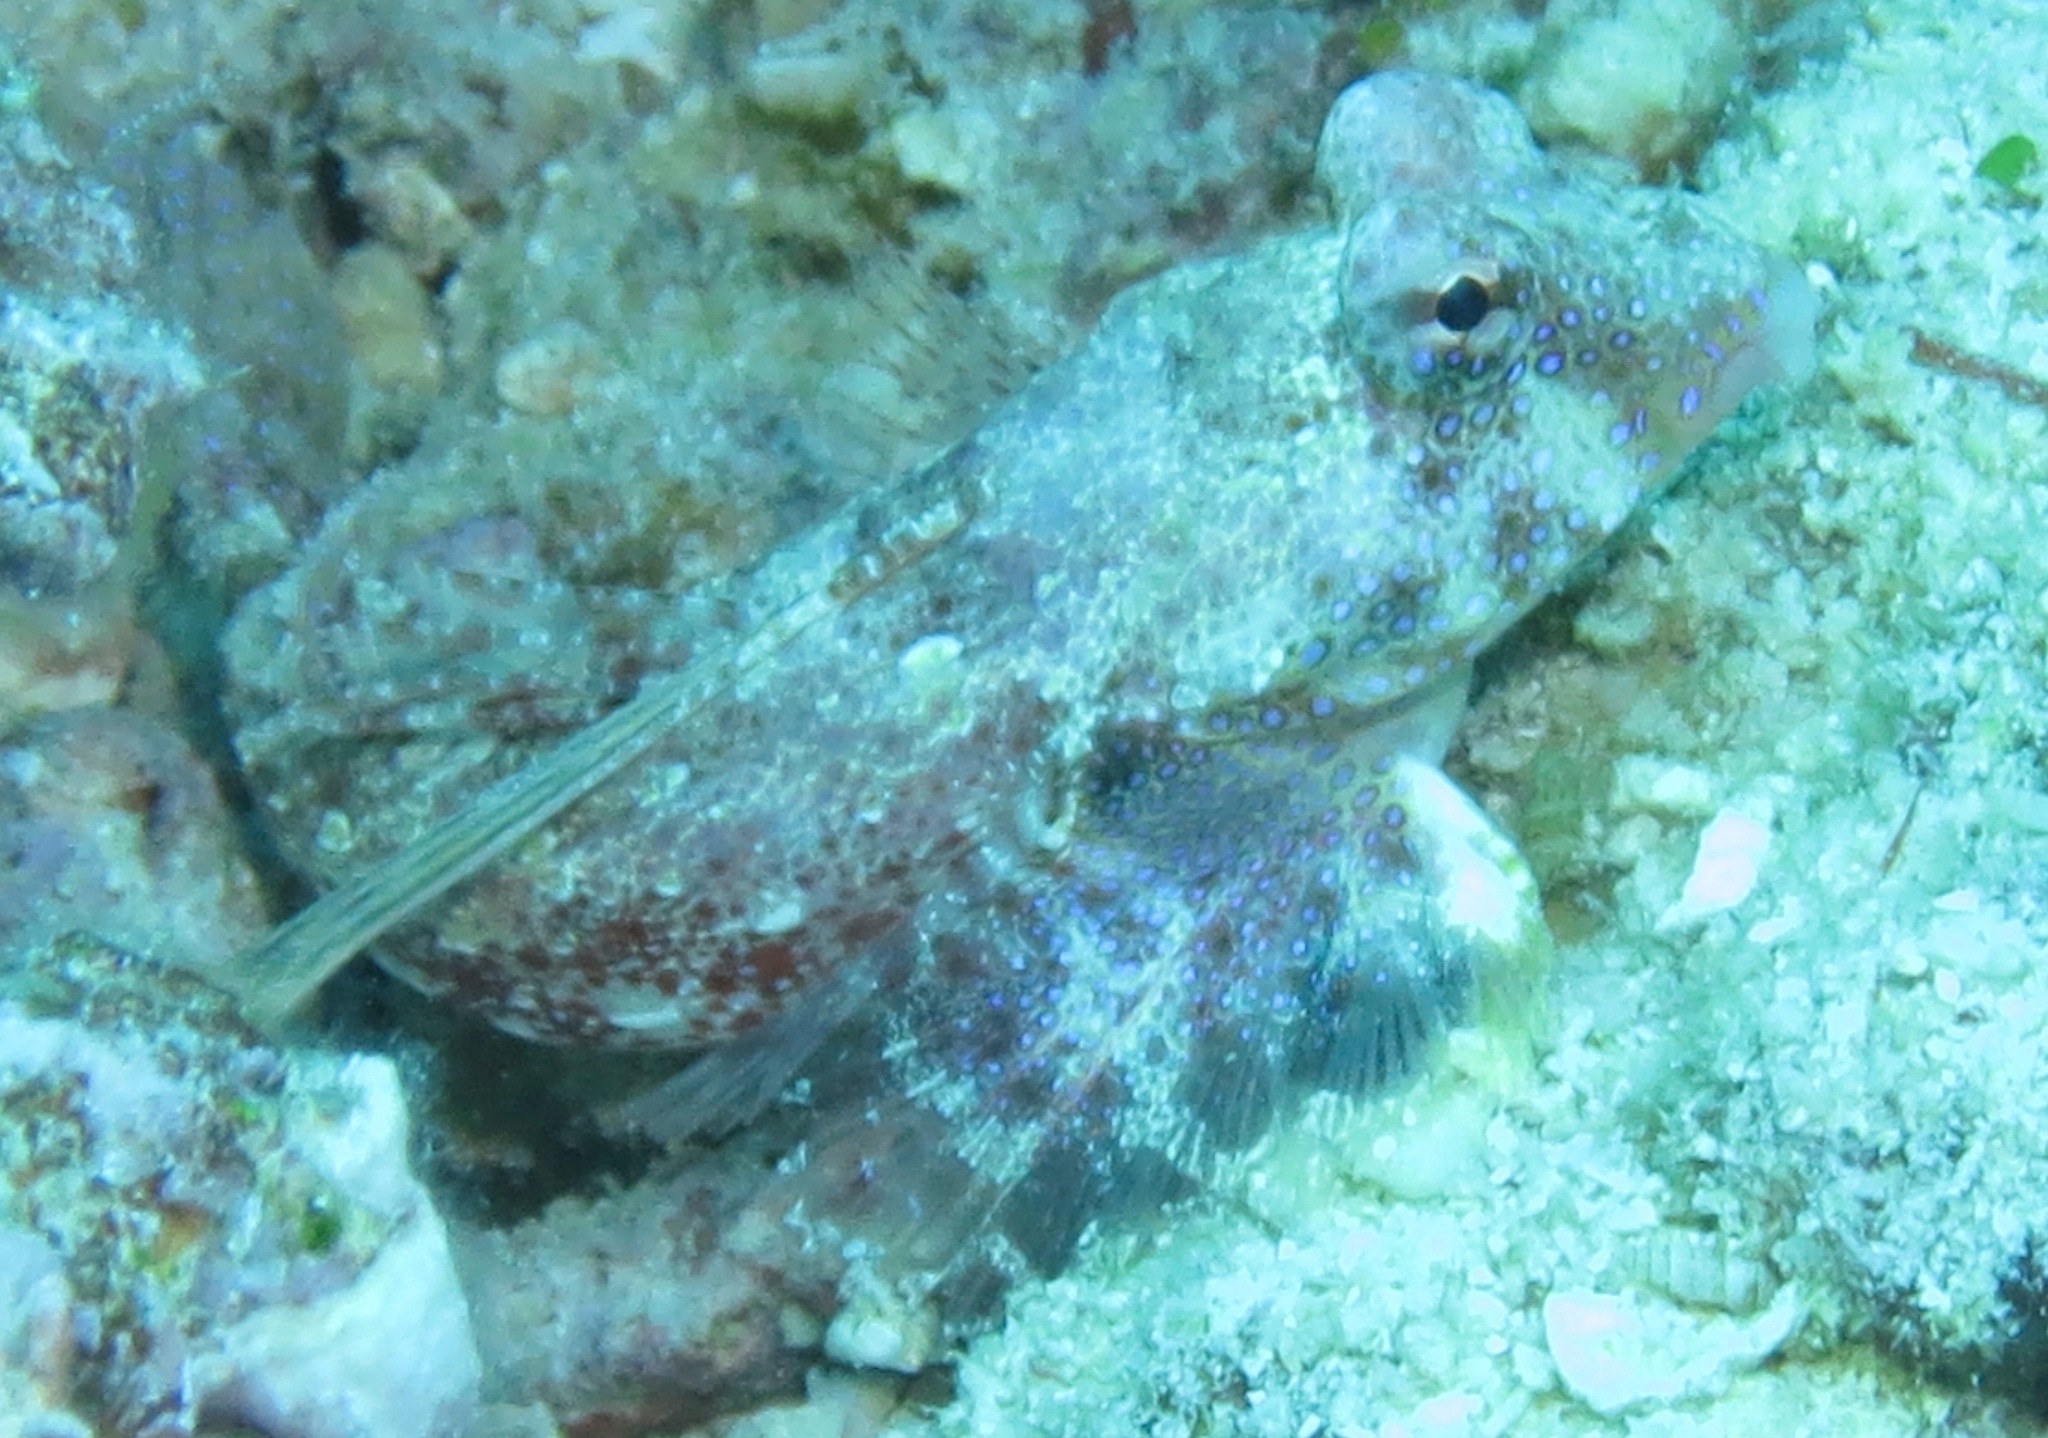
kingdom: Animalia
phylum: Chordata
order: Perciformes
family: Callionymidae
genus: Synchiropus
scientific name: Synchiropus morrisoni
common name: Morrison's dragonet
